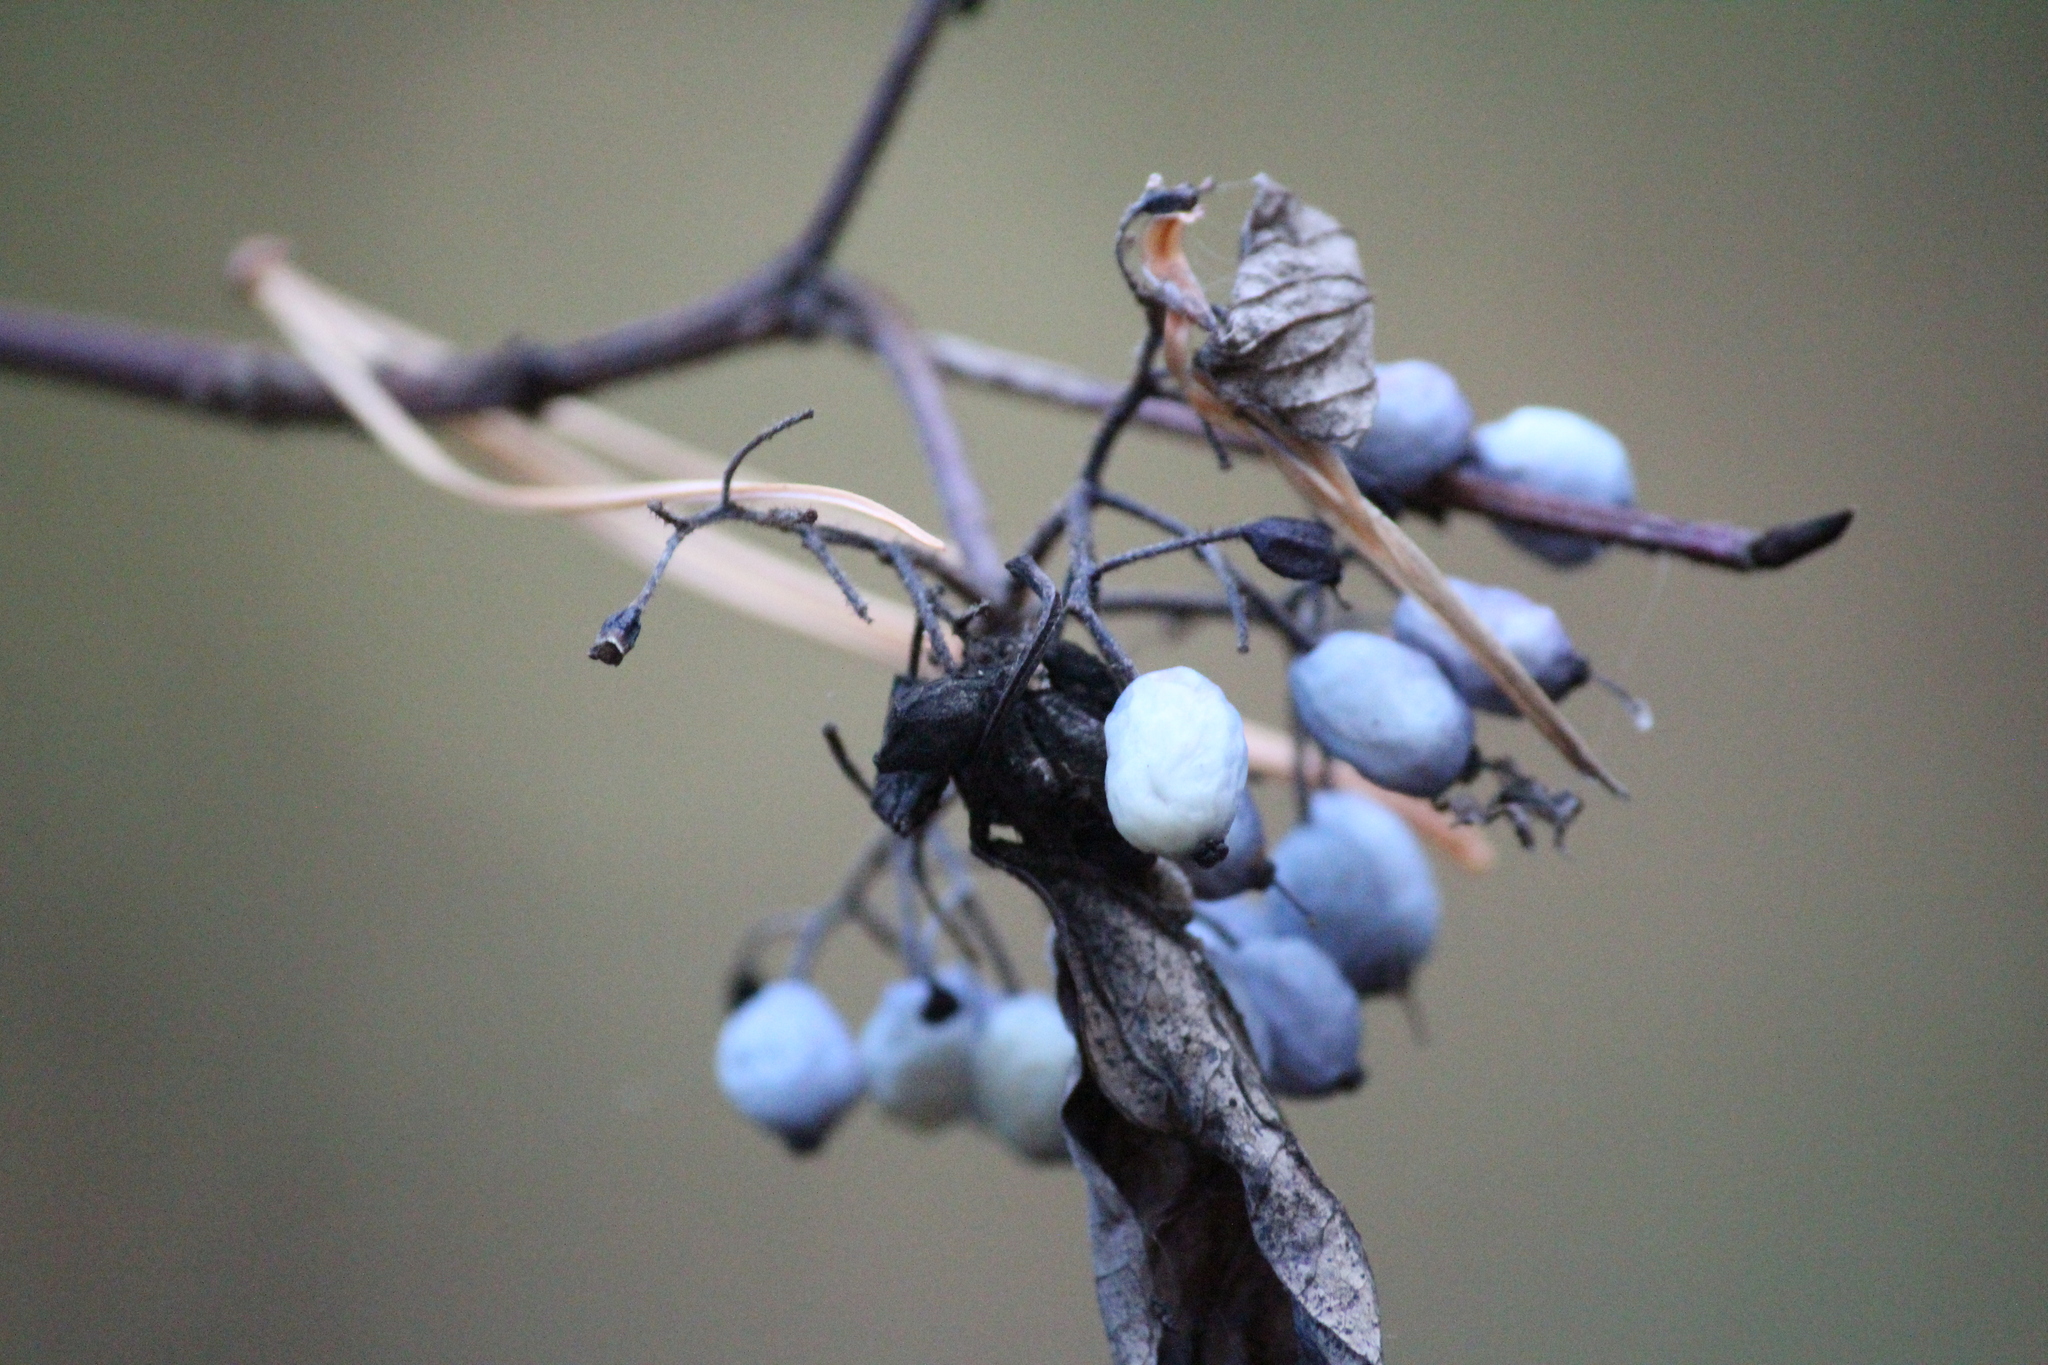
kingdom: Plantae
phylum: Tracheophyta
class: Magnoliopsida
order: Cornales
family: Cornaceae
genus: Cornus
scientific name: Cornus alba
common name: White dogwood
